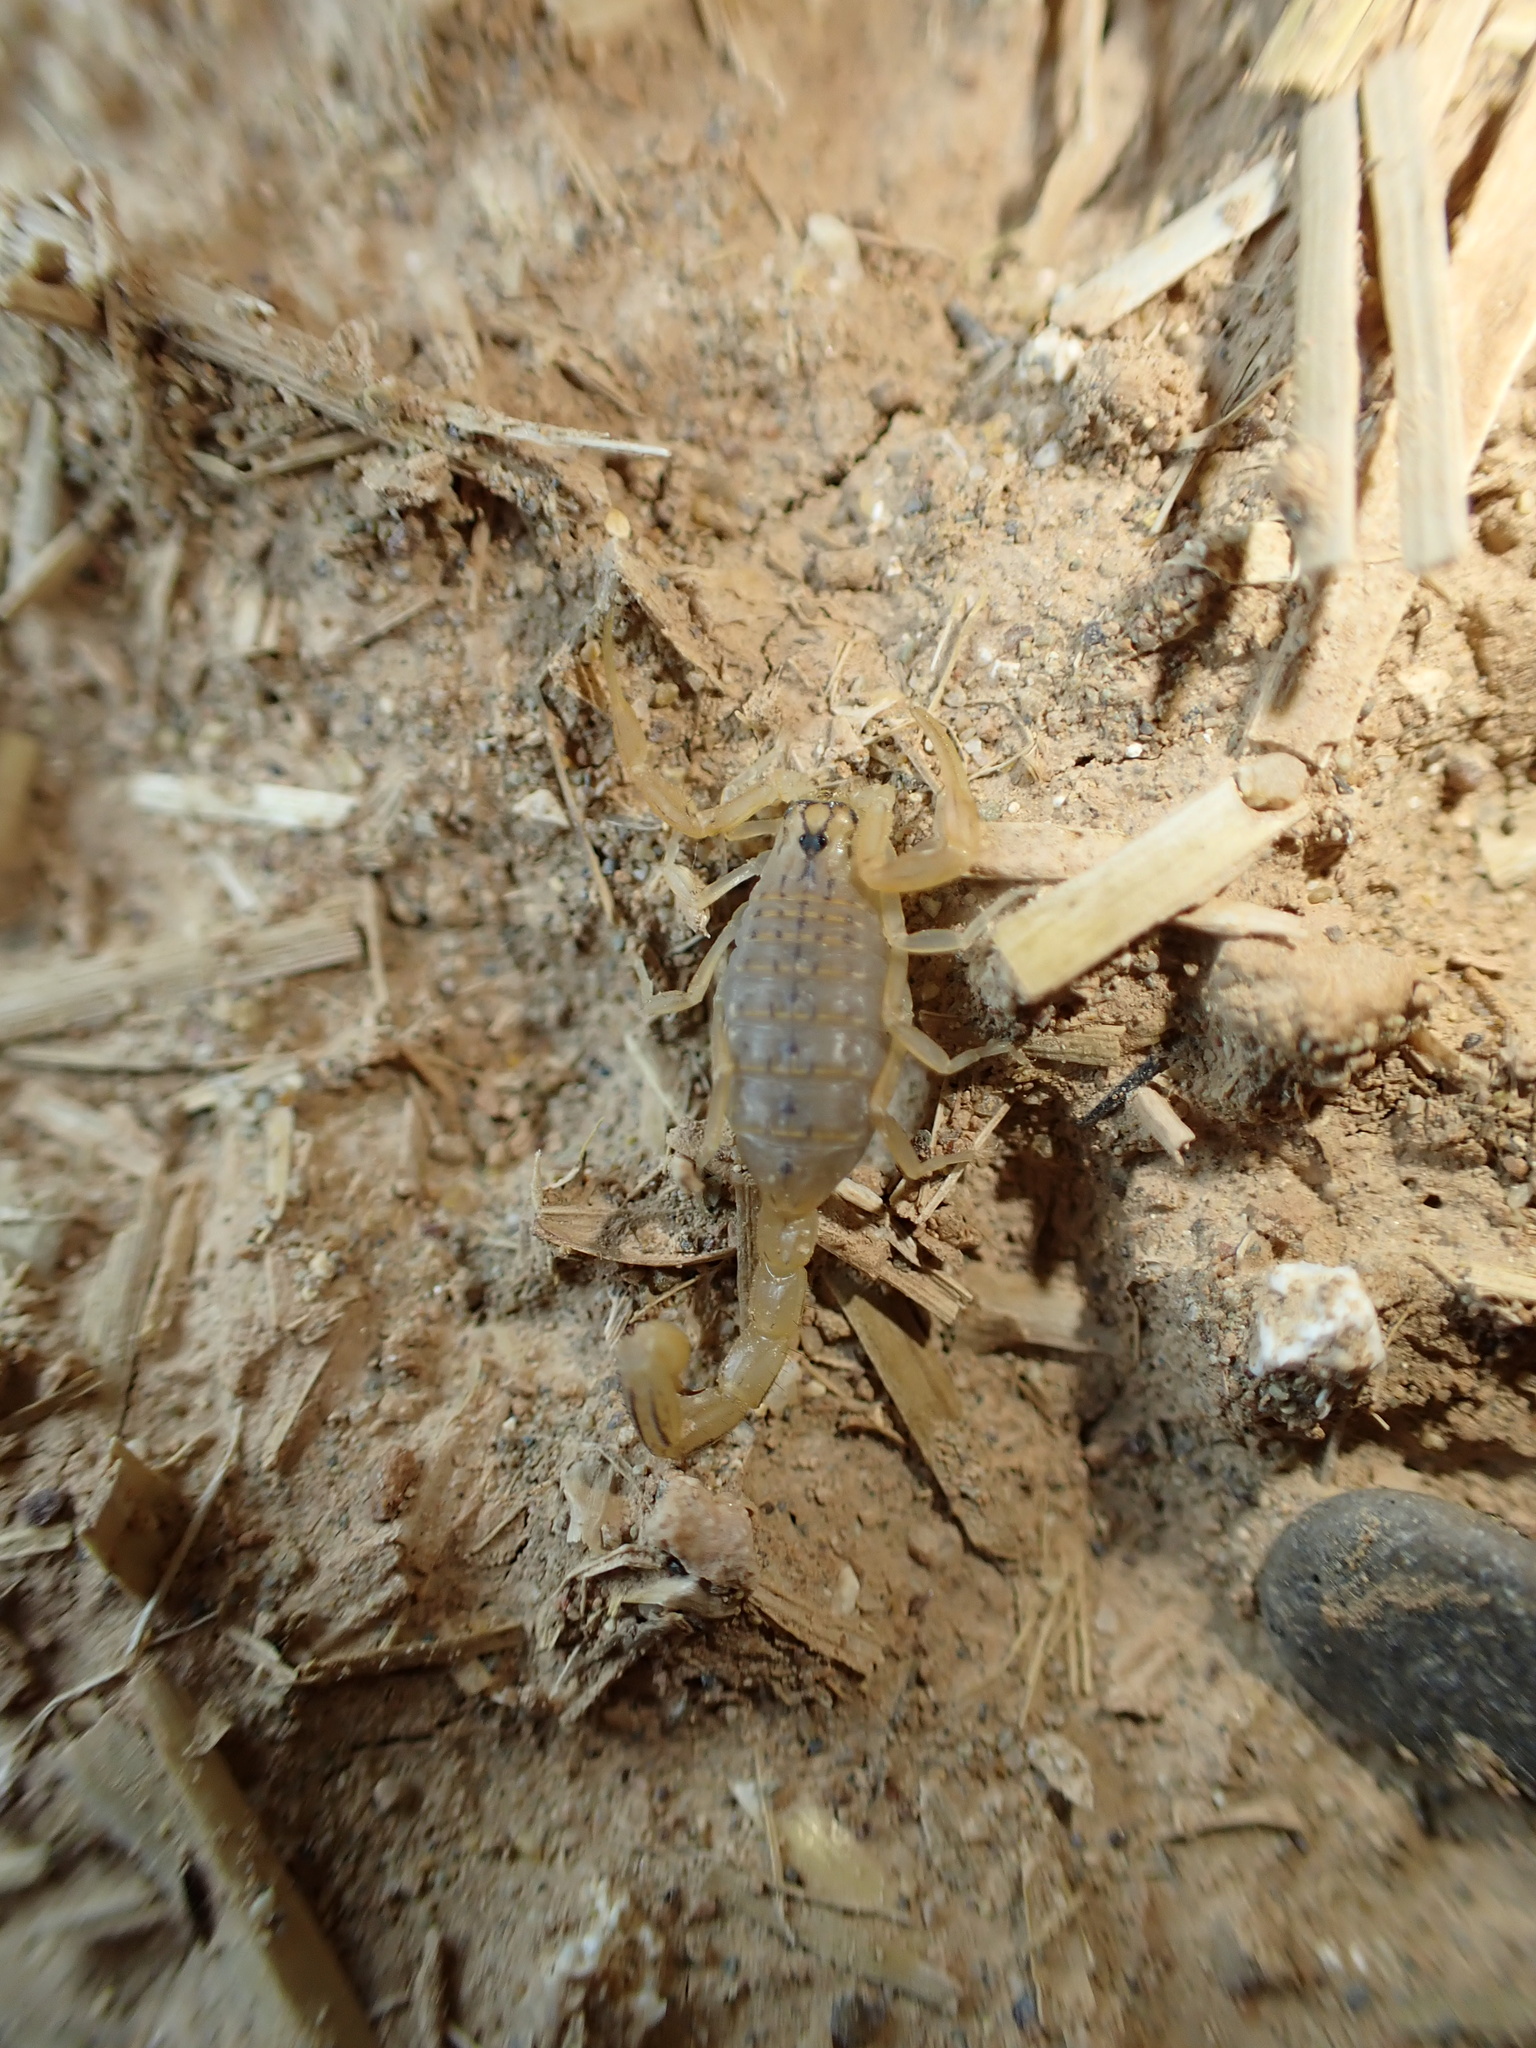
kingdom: Animalia
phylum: Arthropoda
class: Arachnida
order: Scorpiones
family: Buthidae
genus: Mesobuthus
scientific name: Mesobuthus crucittii
